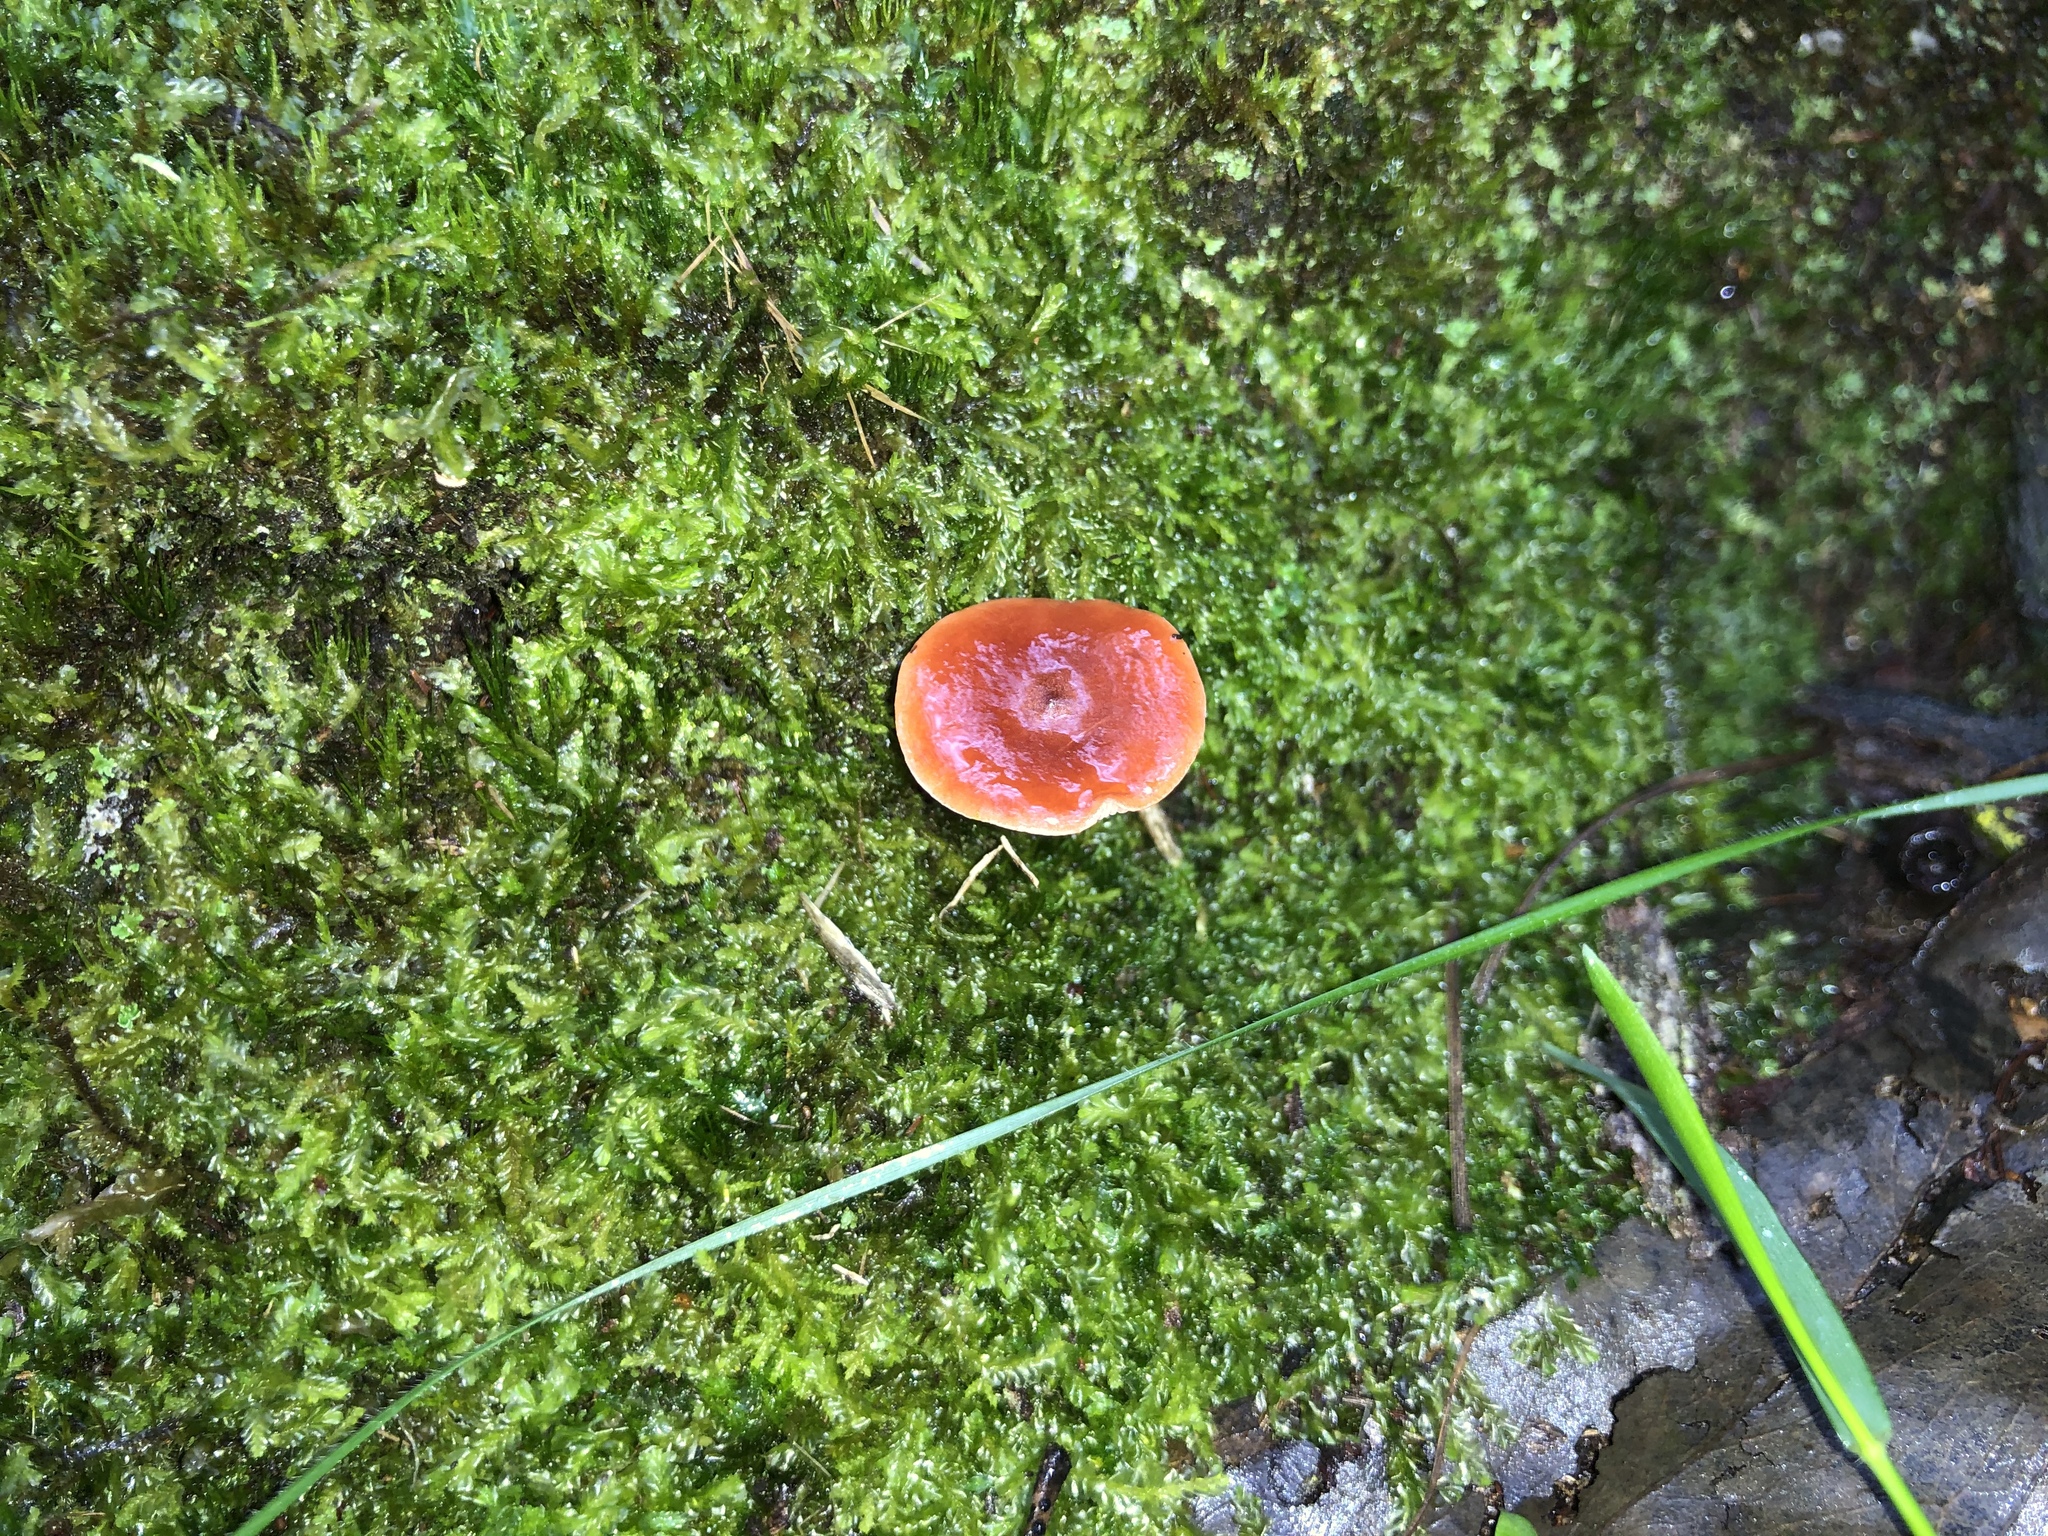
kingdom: Fungi
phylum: Basidiomycota
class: Agaricomycetes
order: Russulales
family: Russulaceae
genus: Lactarius
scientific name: Lactarius eucalypti
